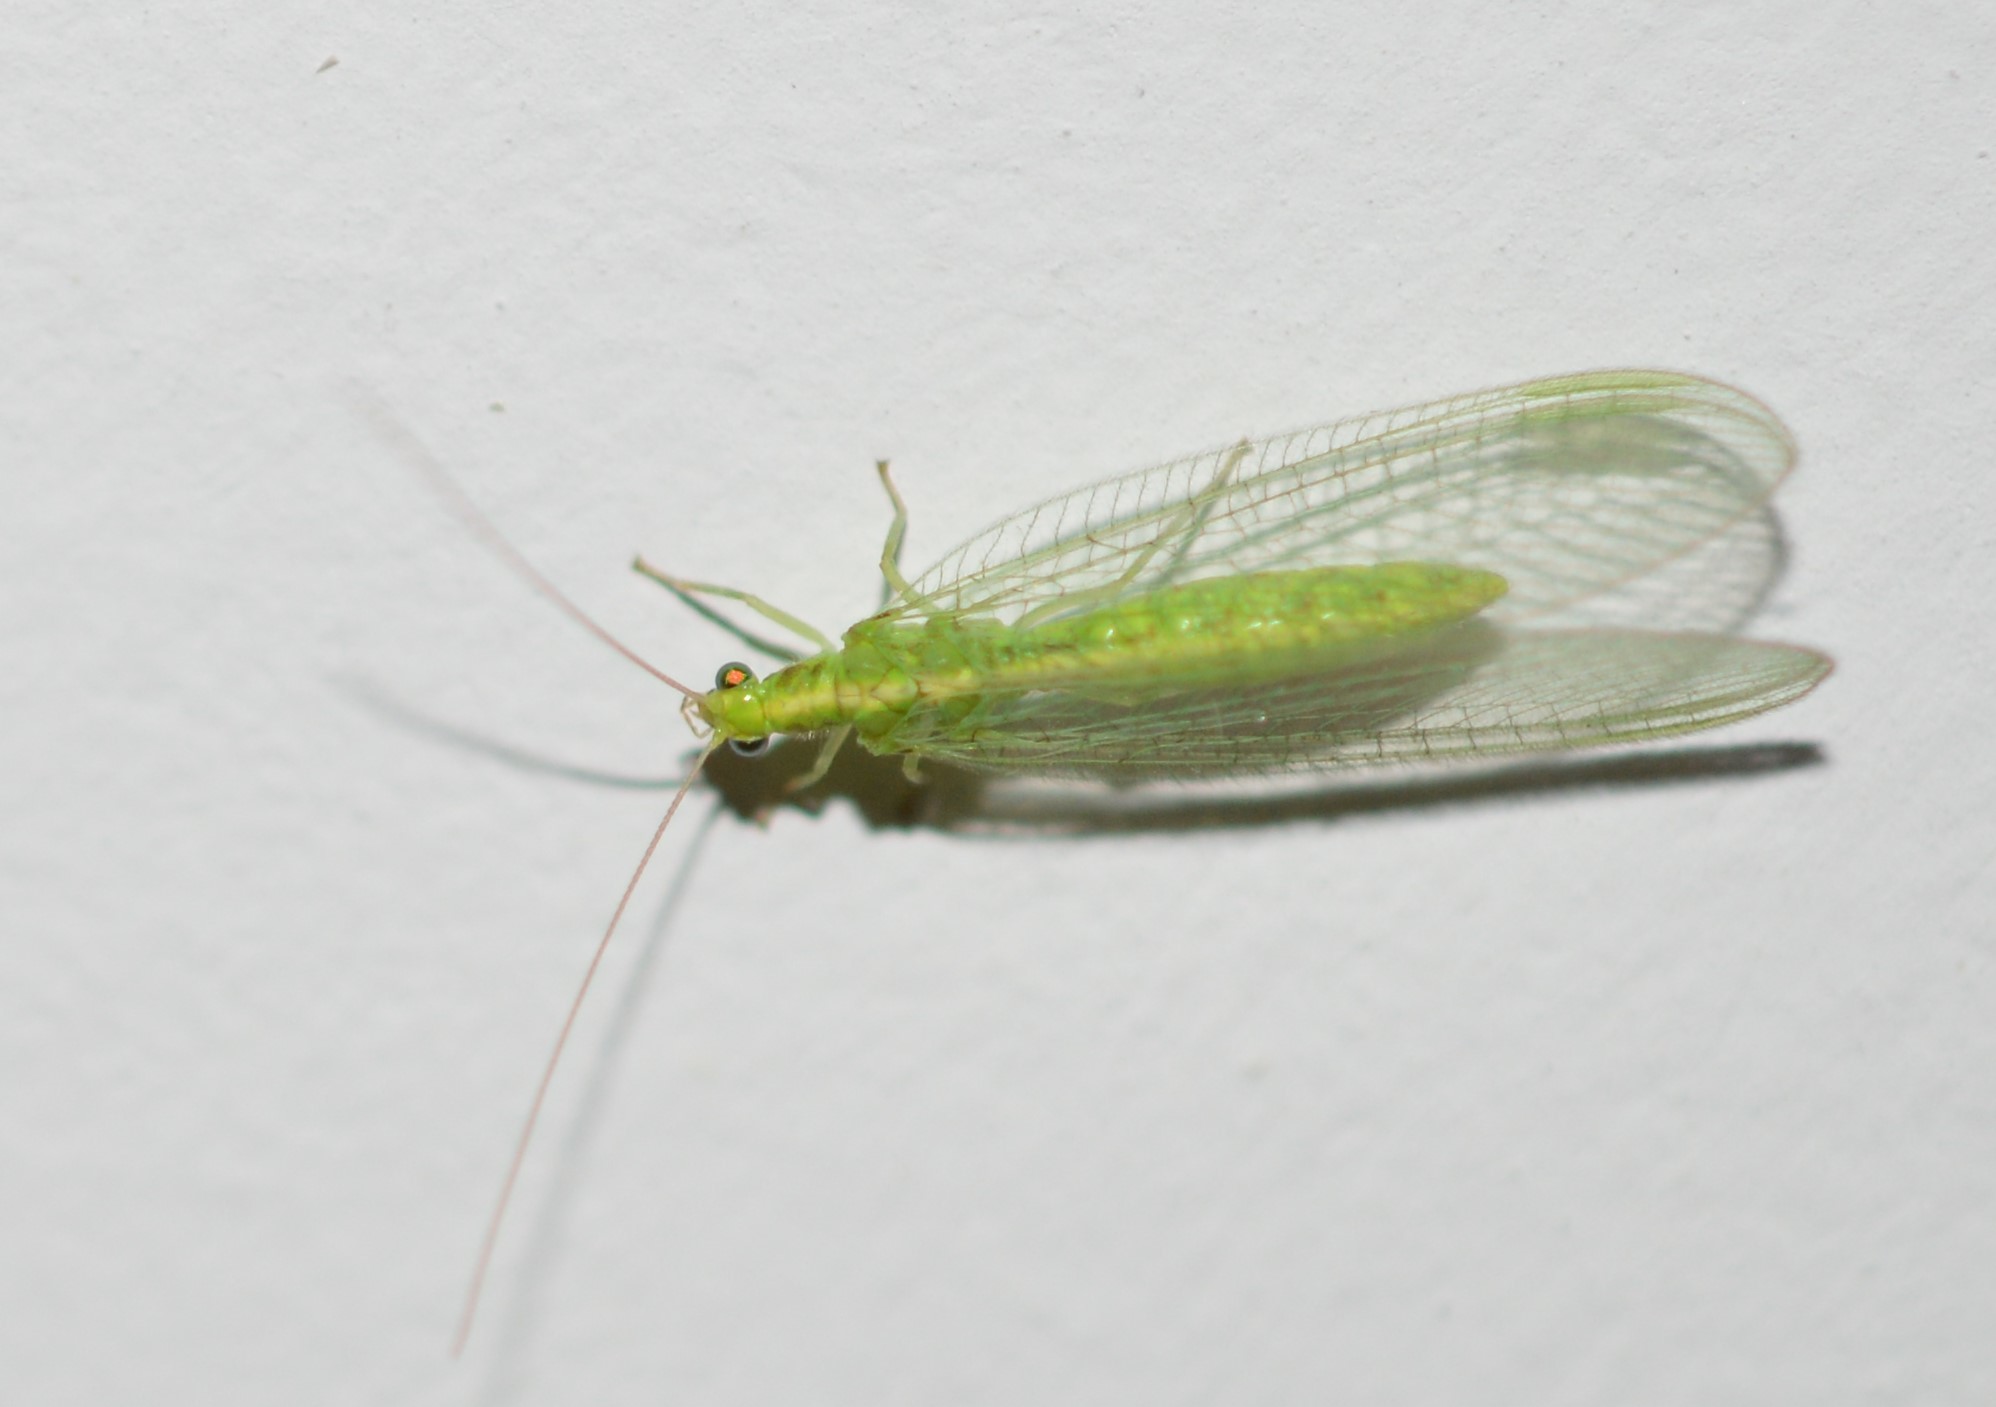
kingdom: Animalia
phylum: Arthropoda
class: Insecta
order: Neuroptera
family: Chrysopidae
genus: Chrysoperla
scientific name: Chrysoperla
